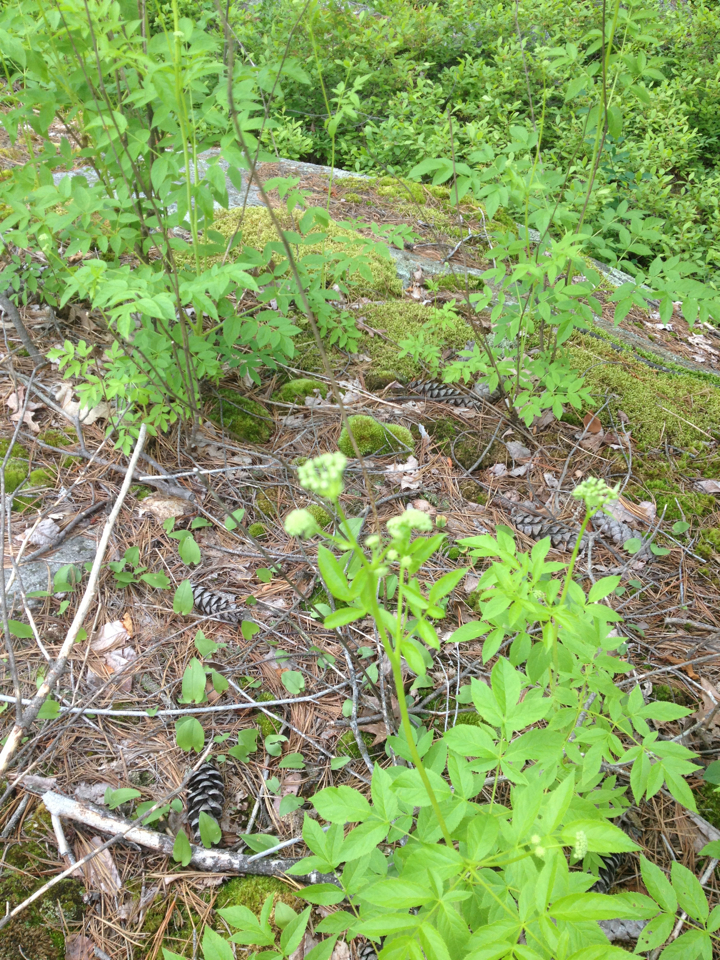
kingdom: Plantae
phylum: Tracheophyta
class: Magnoliopsida
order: Apiales
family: Araliaceae
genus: Aralia
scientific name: Aralia hispida
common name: Bristly sarsaparilla
